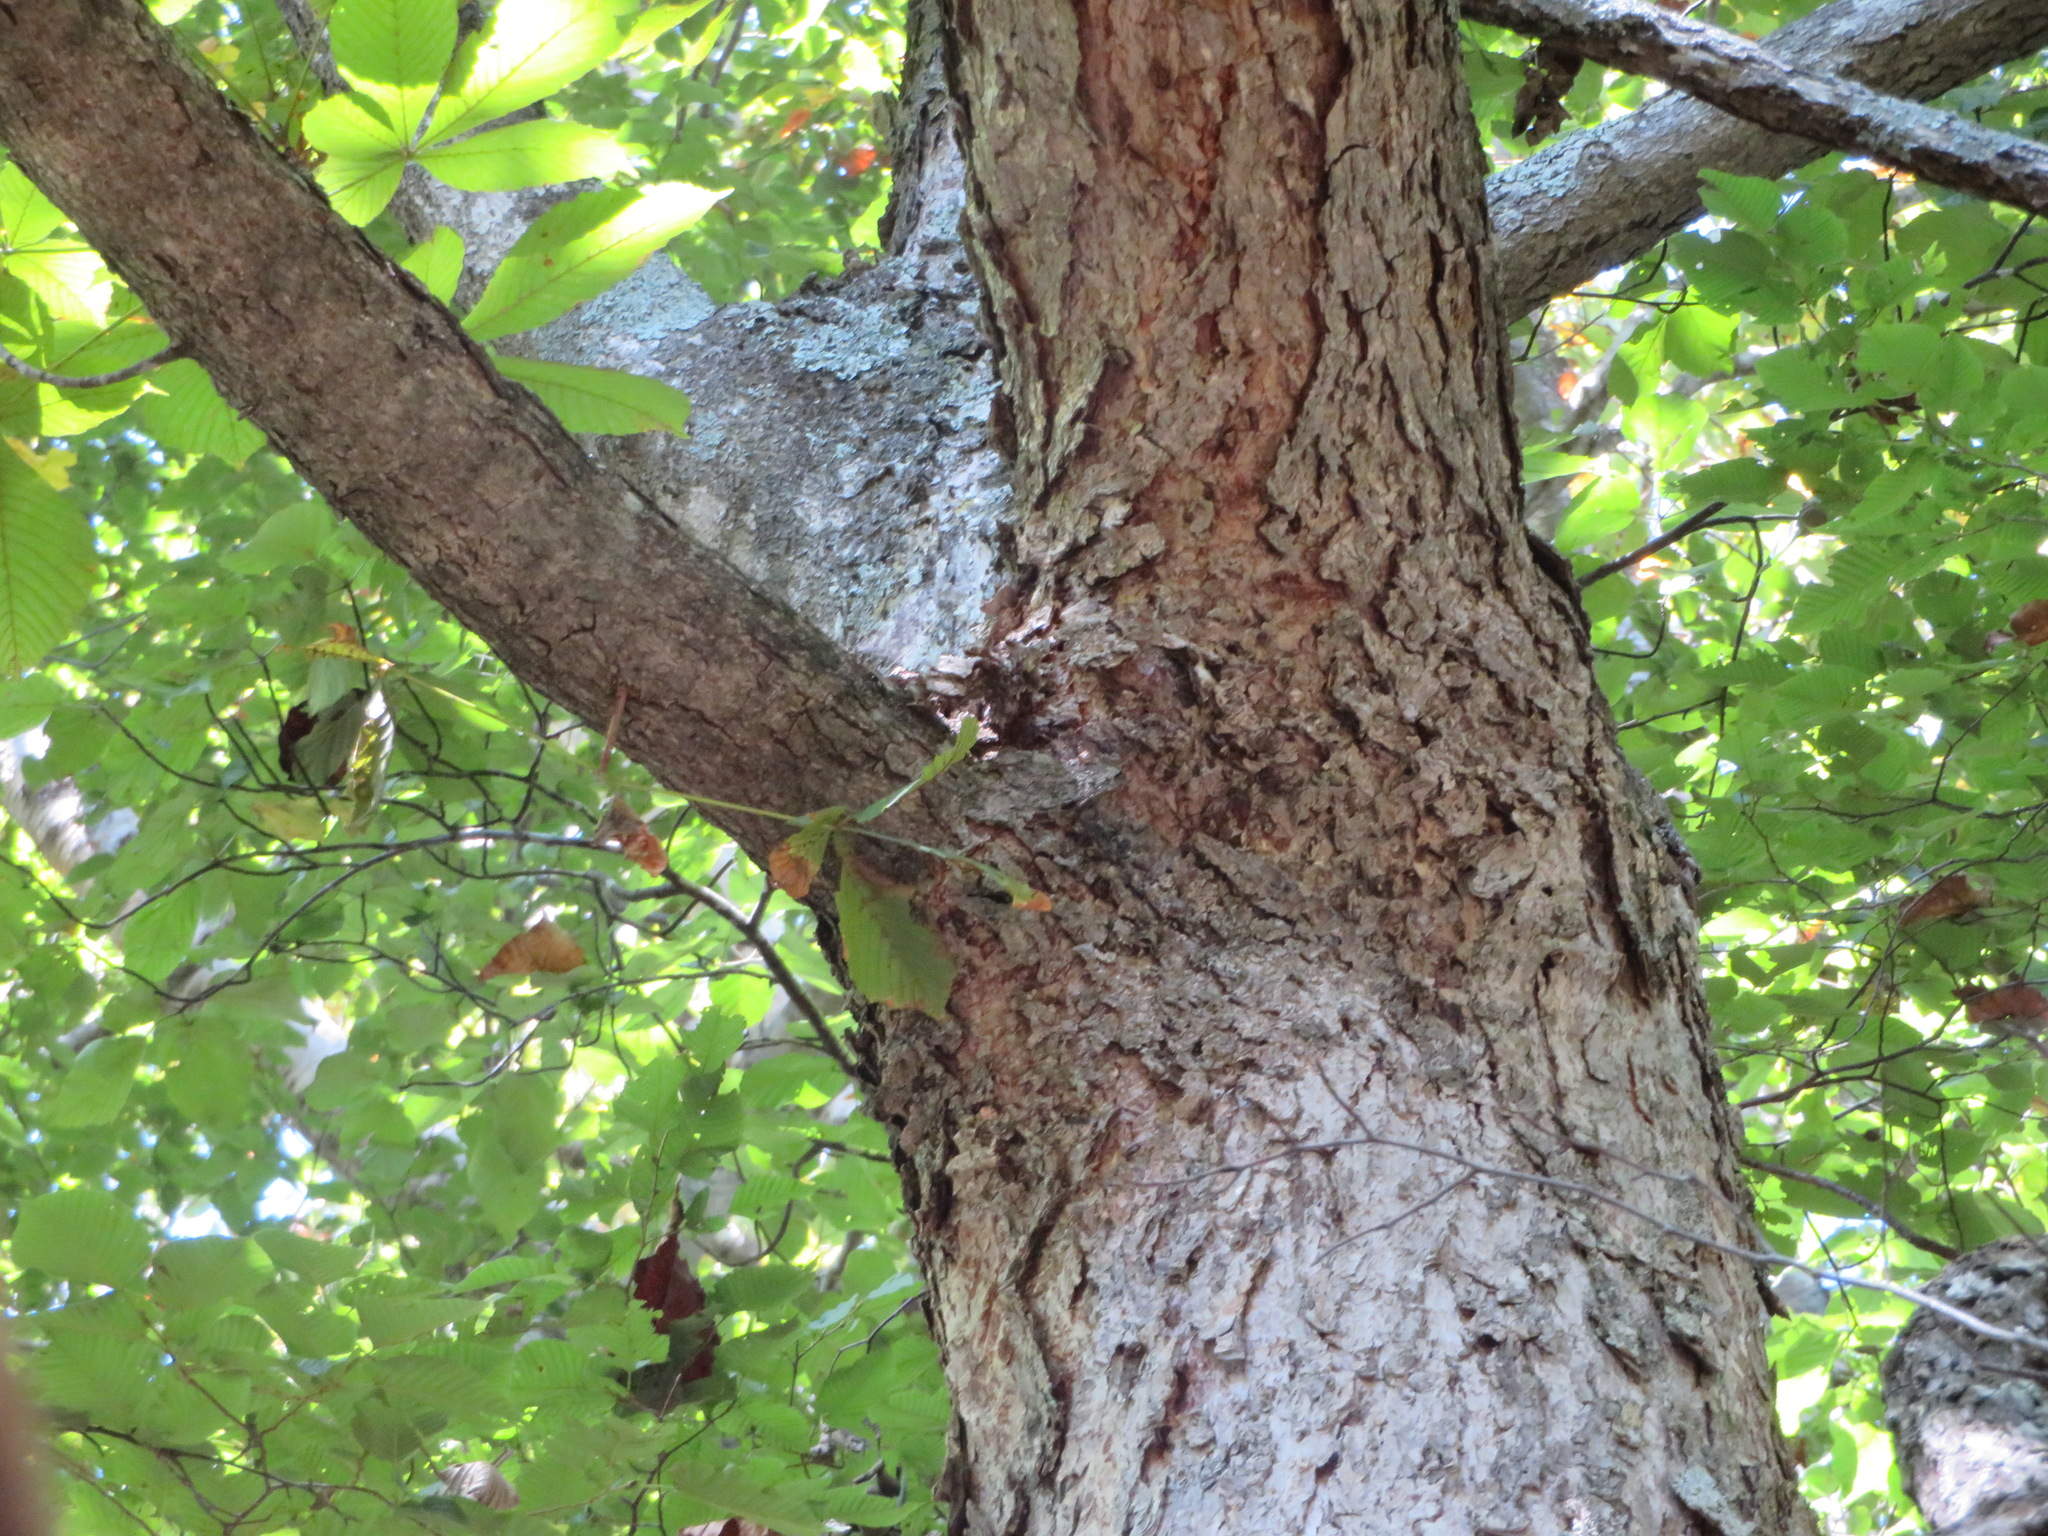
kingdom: Plantae
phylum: Tracheophyta
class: Magnoliopsida
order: Sapindales
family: Sapindaceae
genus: Aesculus
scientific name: Aesculus turbinata
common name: Japanese horse-chestnut
